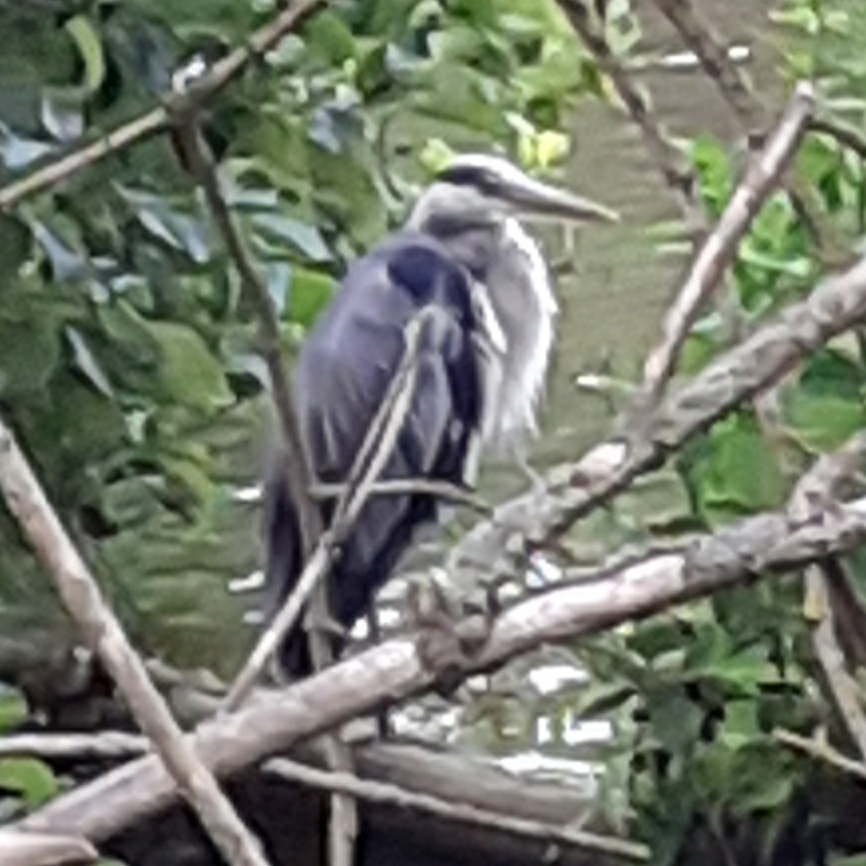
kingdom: Animalia
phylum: Chordata
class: Aves
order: Pelecaniformes
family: Ardeidae
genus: Ardea
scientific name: Ardea cinerea
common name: Grey heron
